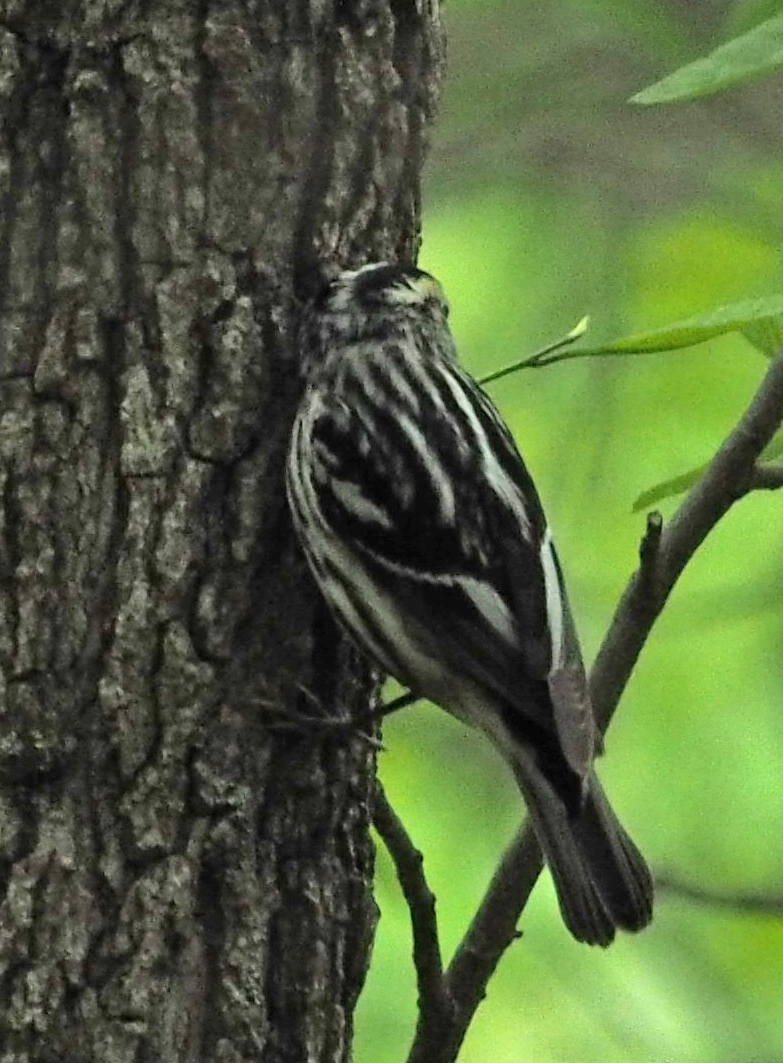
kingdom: Animalia
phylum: Chordata
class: Aves
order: Passeriformes
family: Parulidae
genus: Mniotilta
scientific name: Mniotilta varia
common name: Black-and-white warbler
